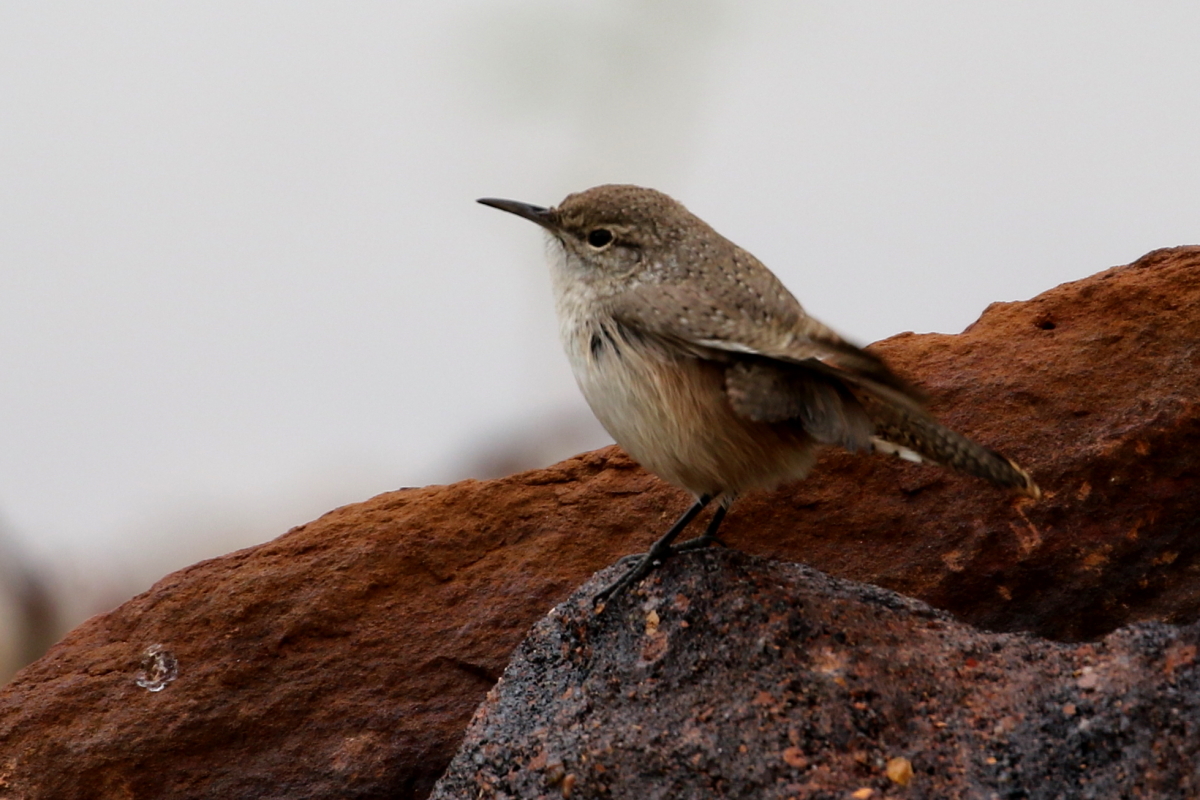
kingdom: Animalia
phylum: Chordata
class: Aves
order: Passeriformes
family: Troglodytidae
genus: Salpinctes
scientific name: Salpinctes obsoletus
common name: Rock wren
